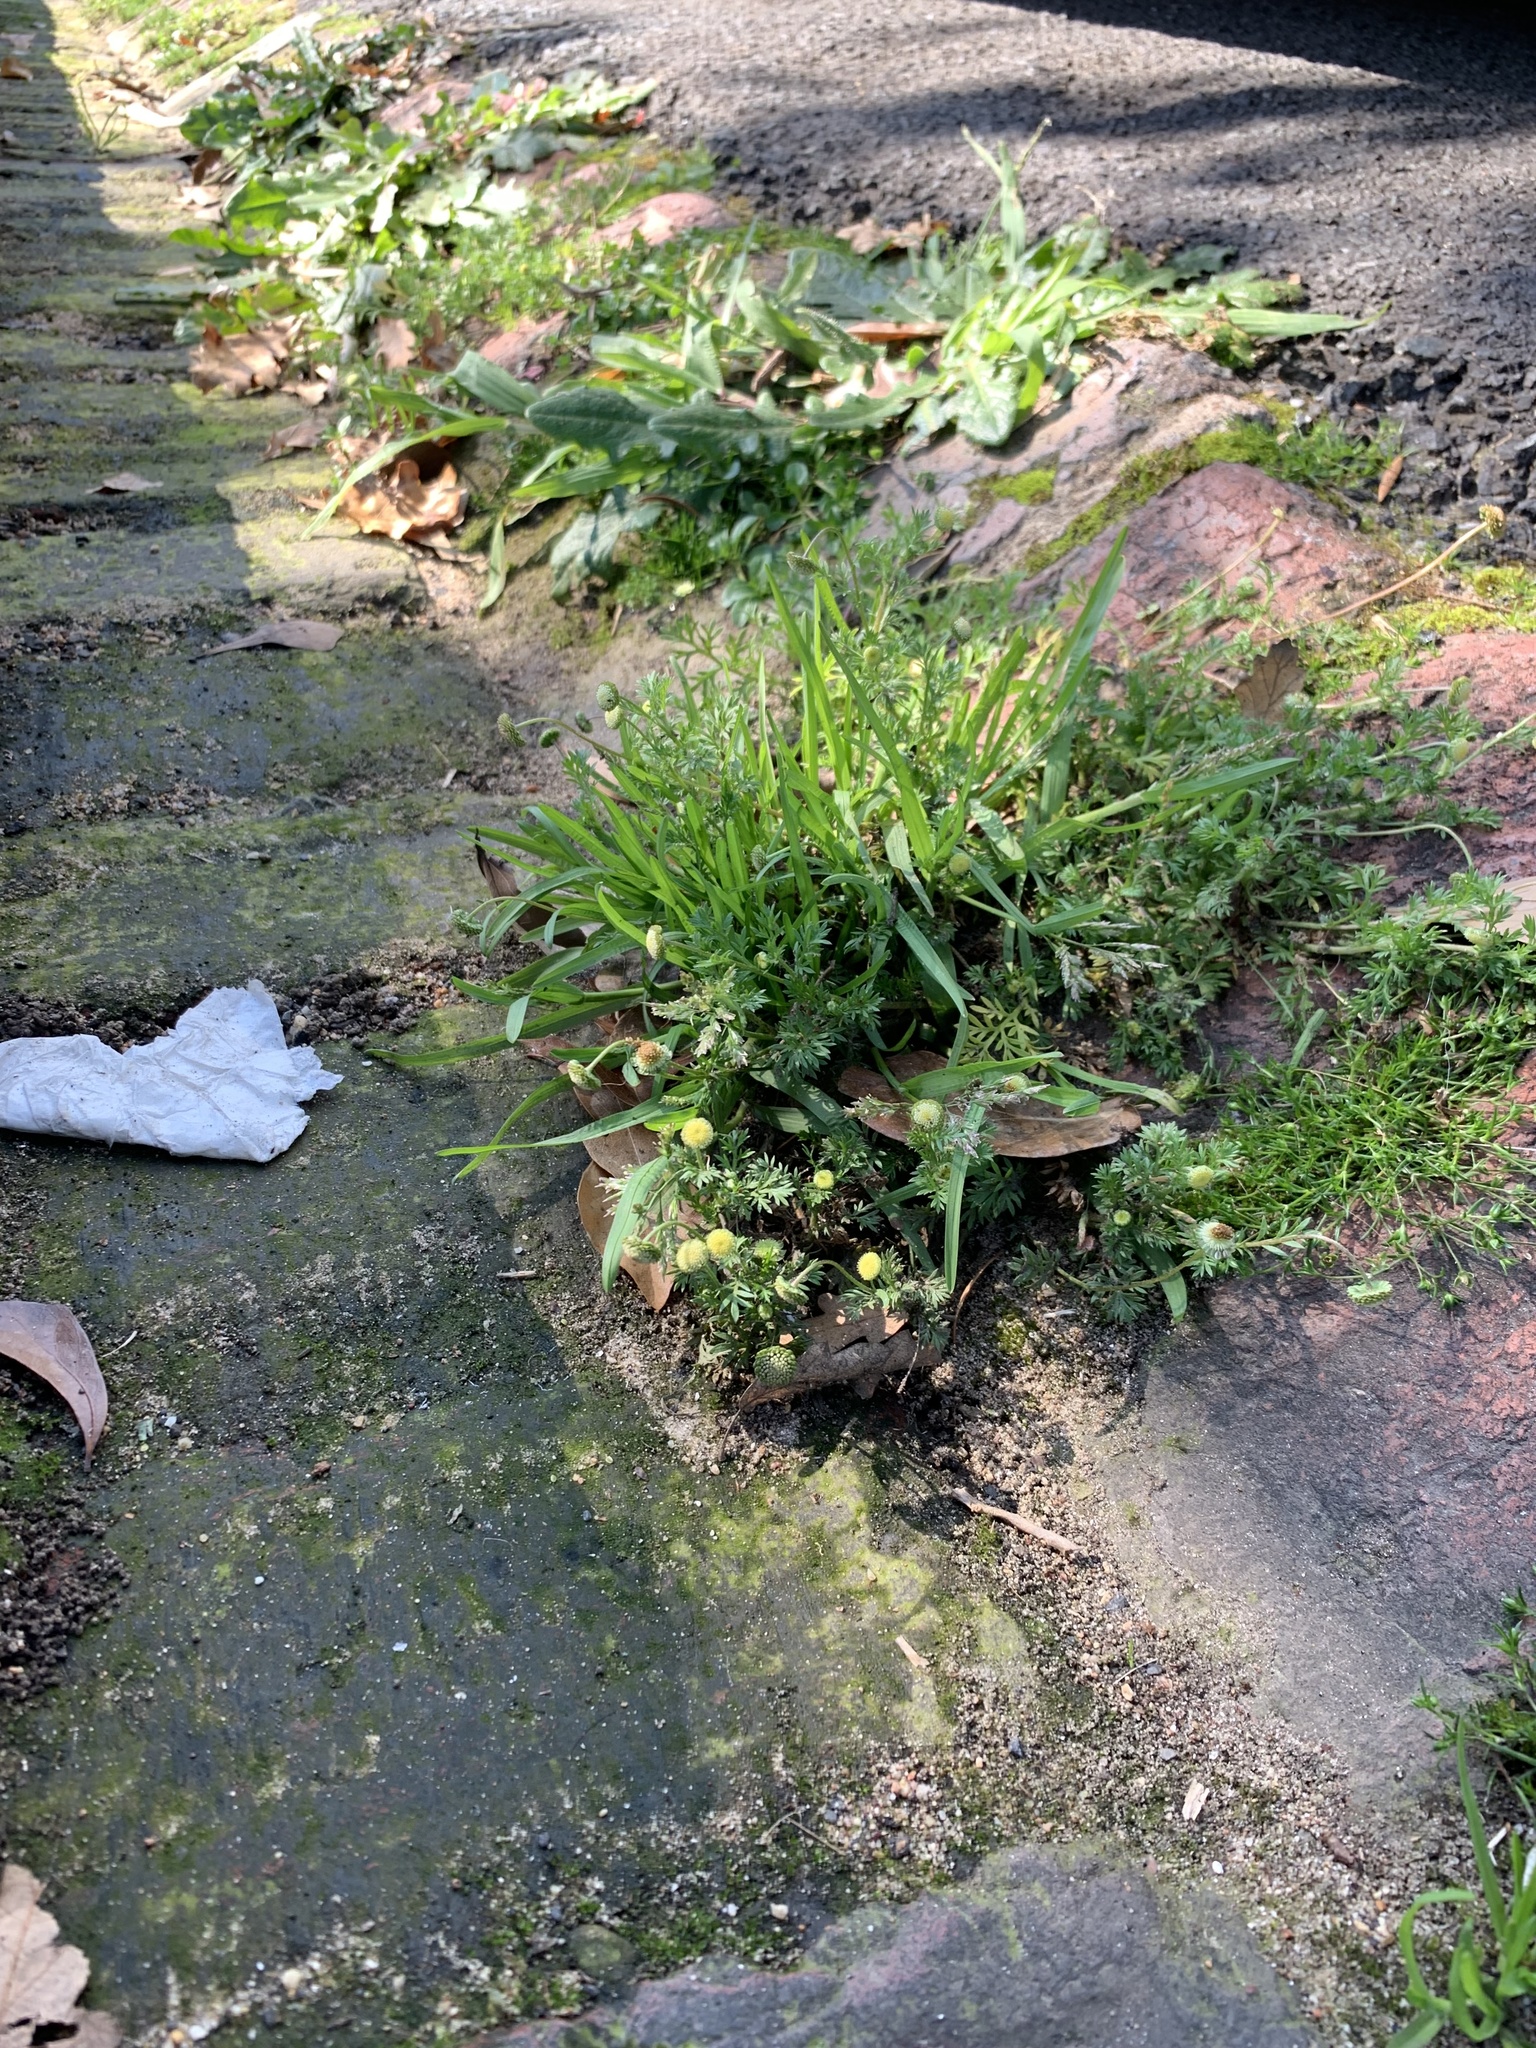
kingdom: Plantae
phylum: Tracheophyta
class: Magnoliopsida
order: Asterales
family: Asteraceae
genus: Cotula
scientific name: Cotula australis
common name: Australian waterbuttons
